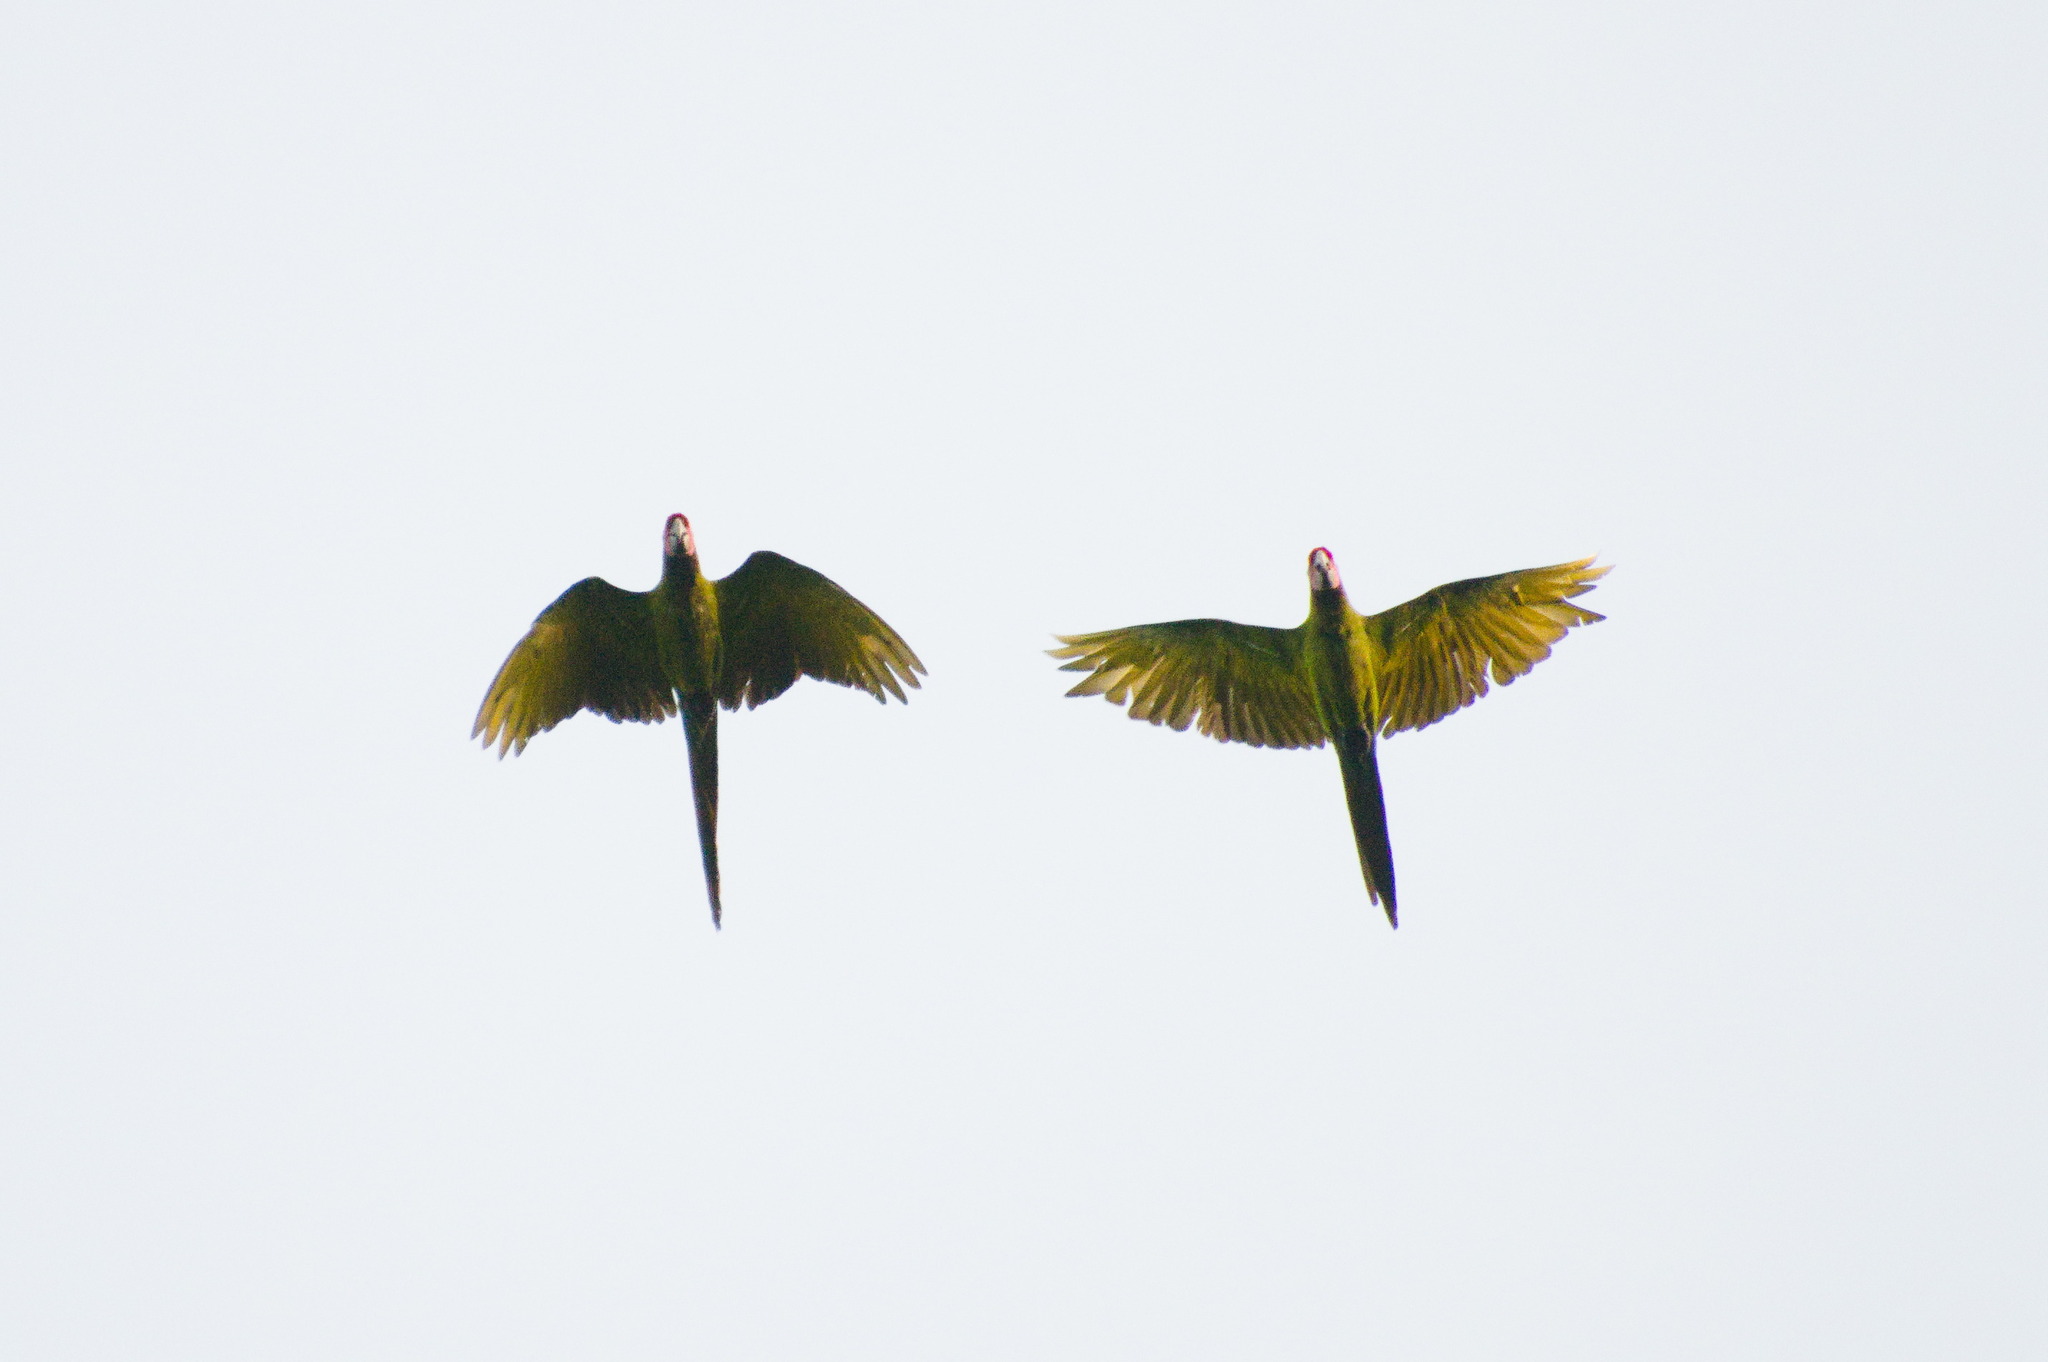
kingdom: Animalia
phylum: Chordata
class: Aves
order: Psittaciformes
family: Psittacidae
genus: Ara
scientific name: Ara militaris
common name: Military macaw
